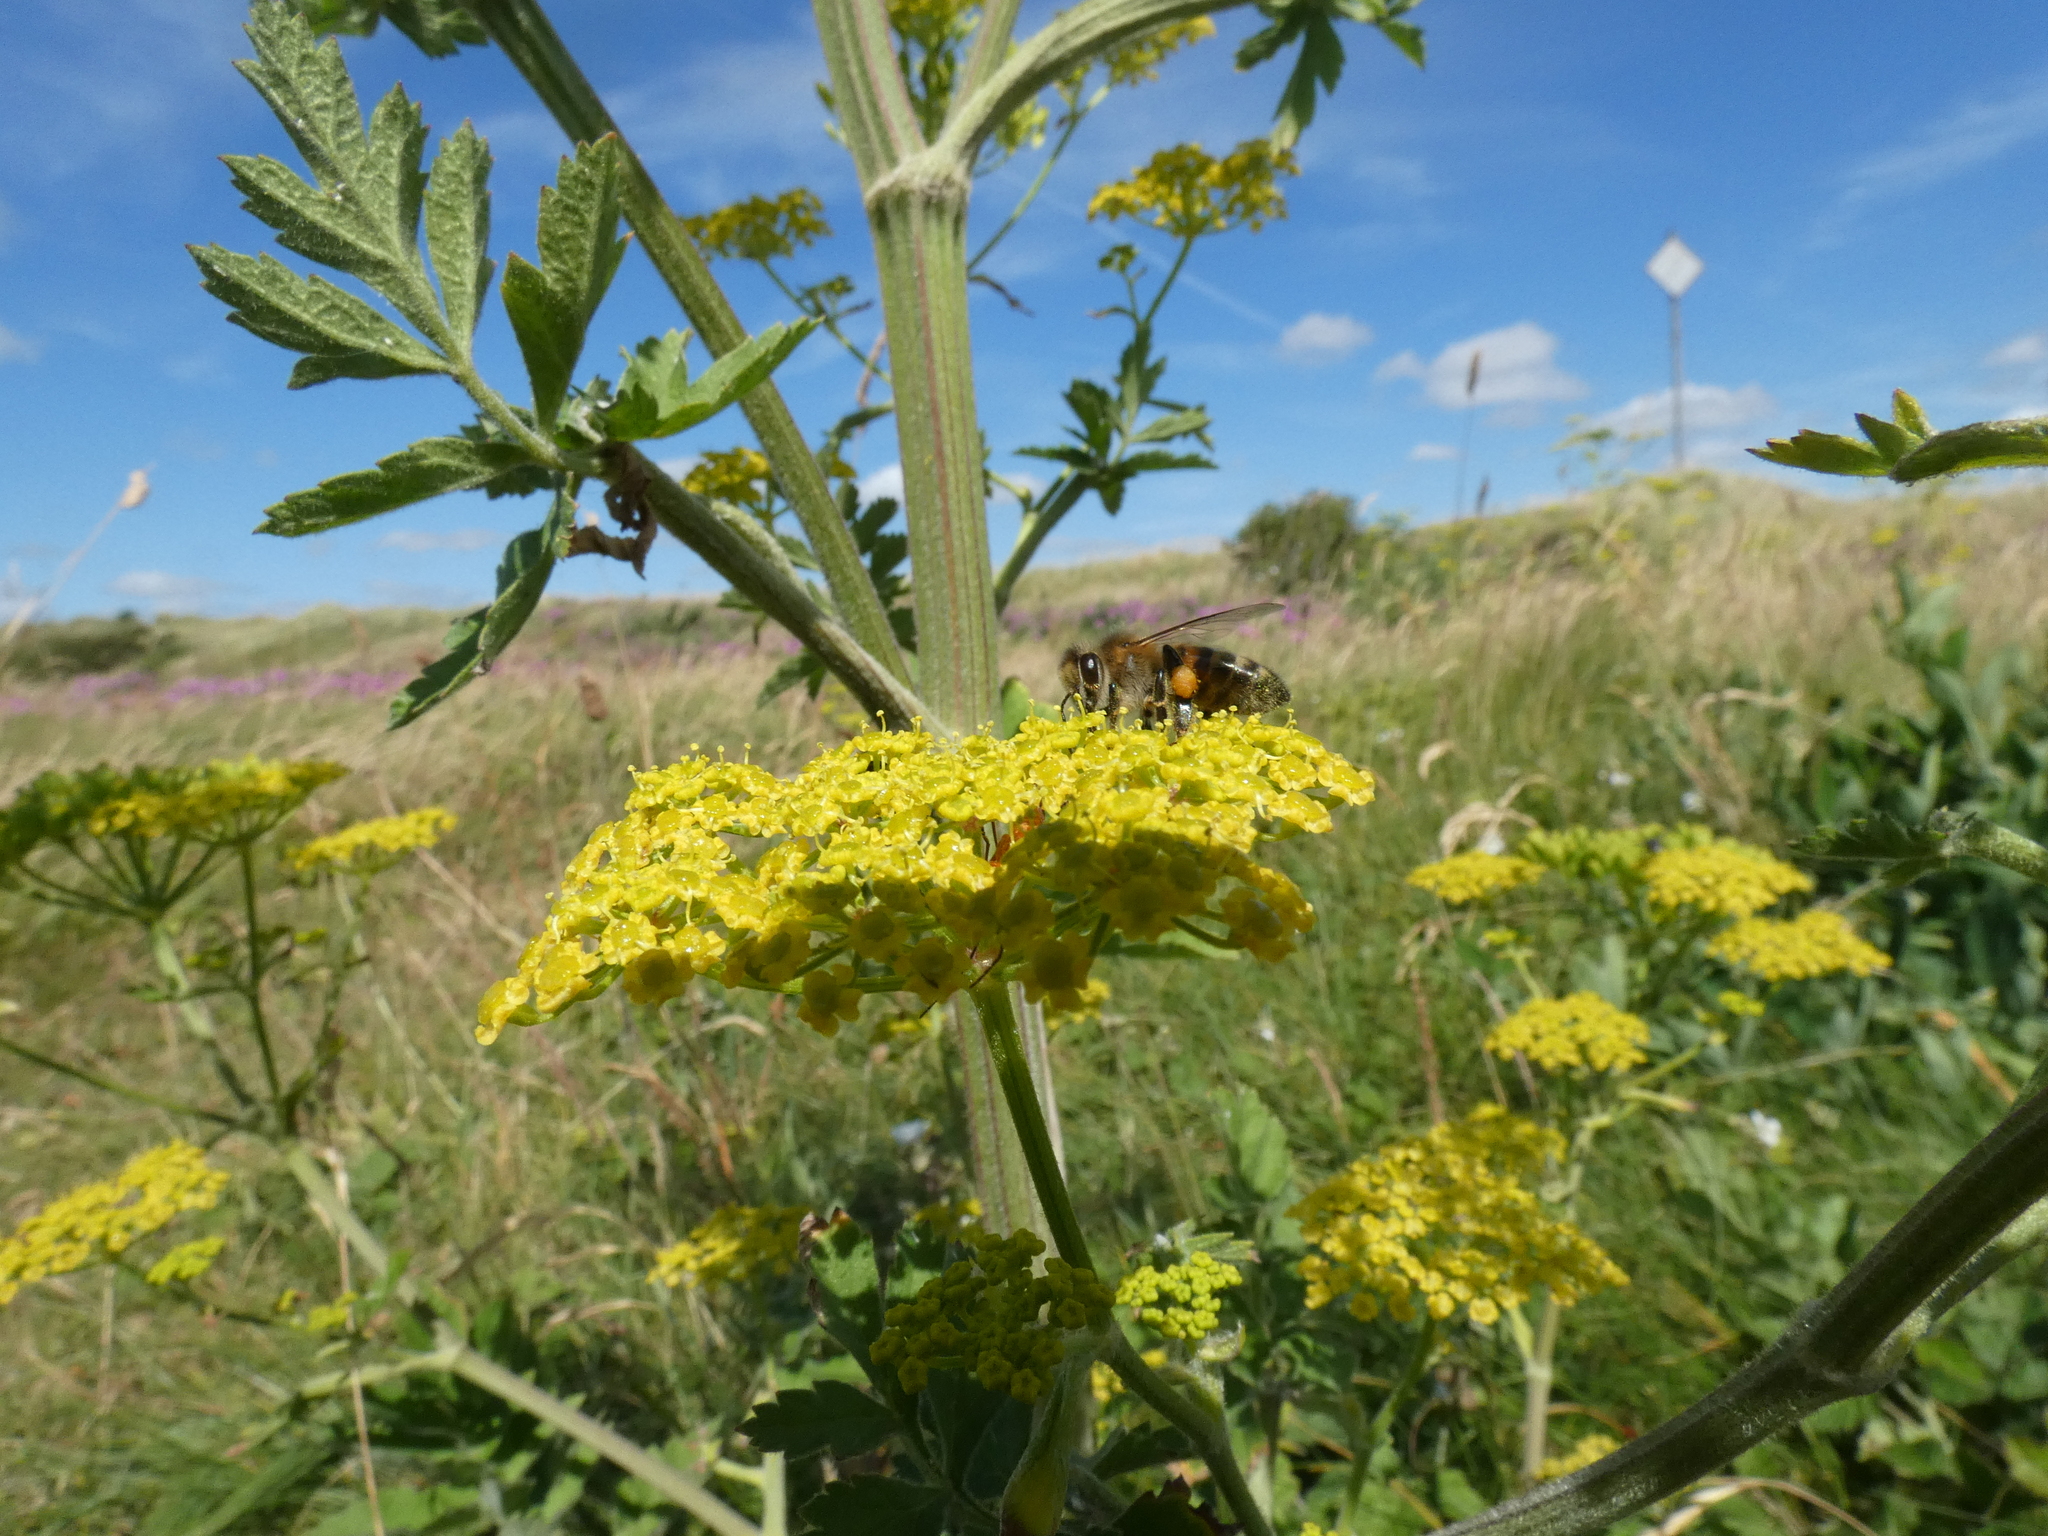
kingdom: Animalia
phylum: Arthropoda
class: Insecta
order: Hymenoptera
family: Apidae
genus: Apis
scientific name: Apis mellifera
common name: Honey bee
